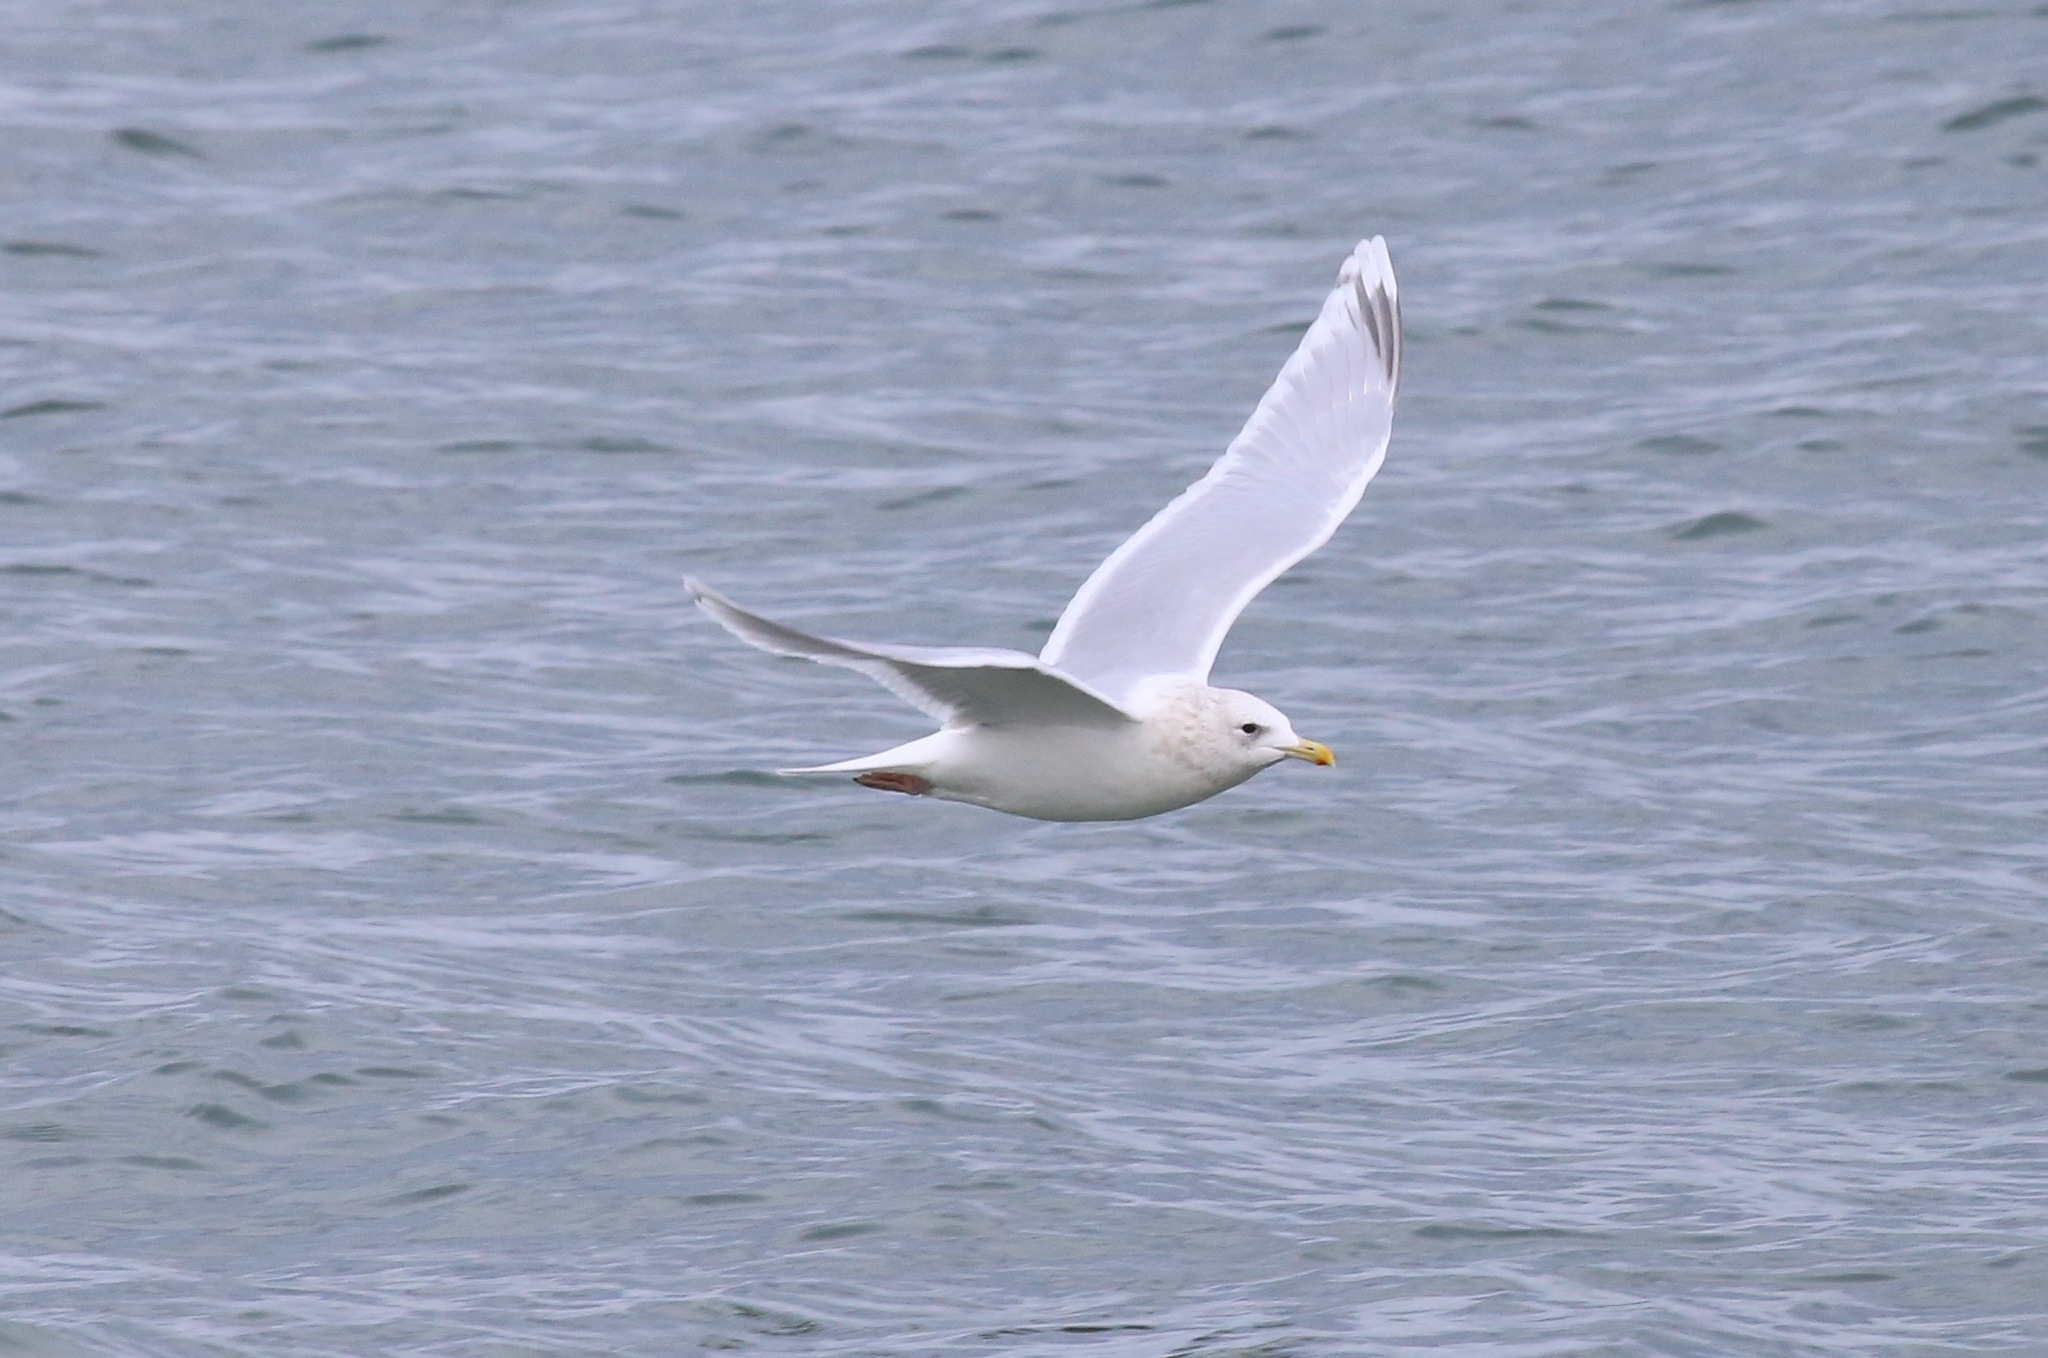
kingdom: Animalia
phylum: Chordata
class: Aves
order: Charadriiformes
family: Laridae
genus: Larus
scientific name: Larus glaucoides
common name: Iceland gull
